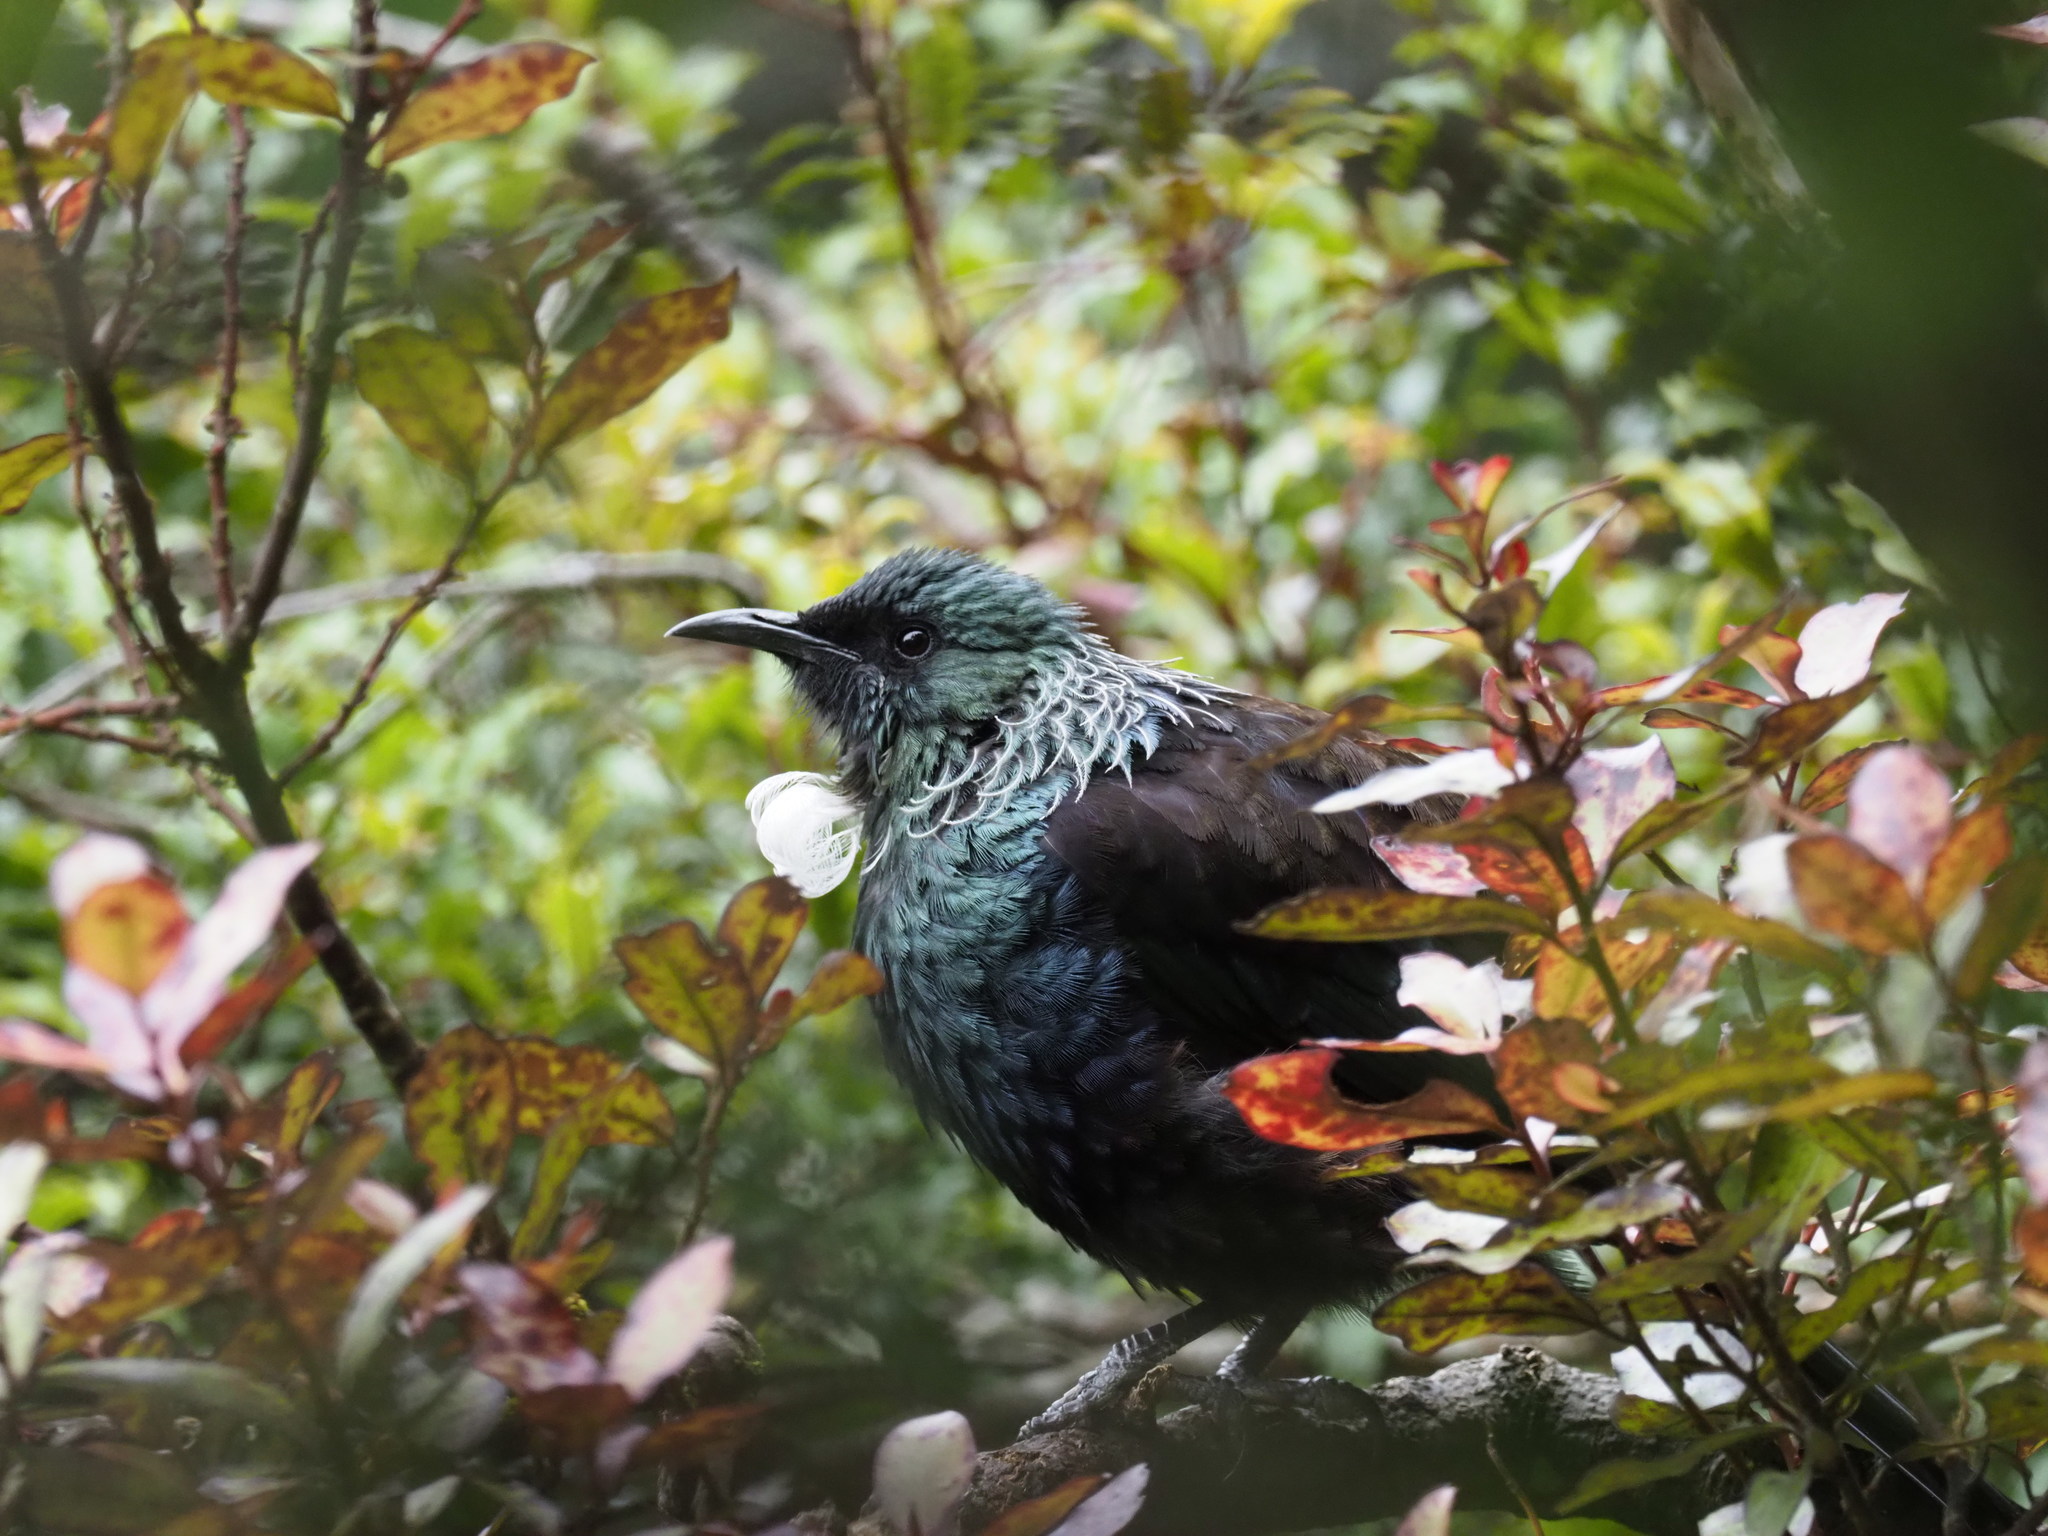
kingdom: Animalia
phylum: Chordata
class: Aves
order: Passeriformes
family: Meliphagidae
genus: Prosthemadera
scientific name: Prosthemadera novaeseelandiae
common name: Tui
